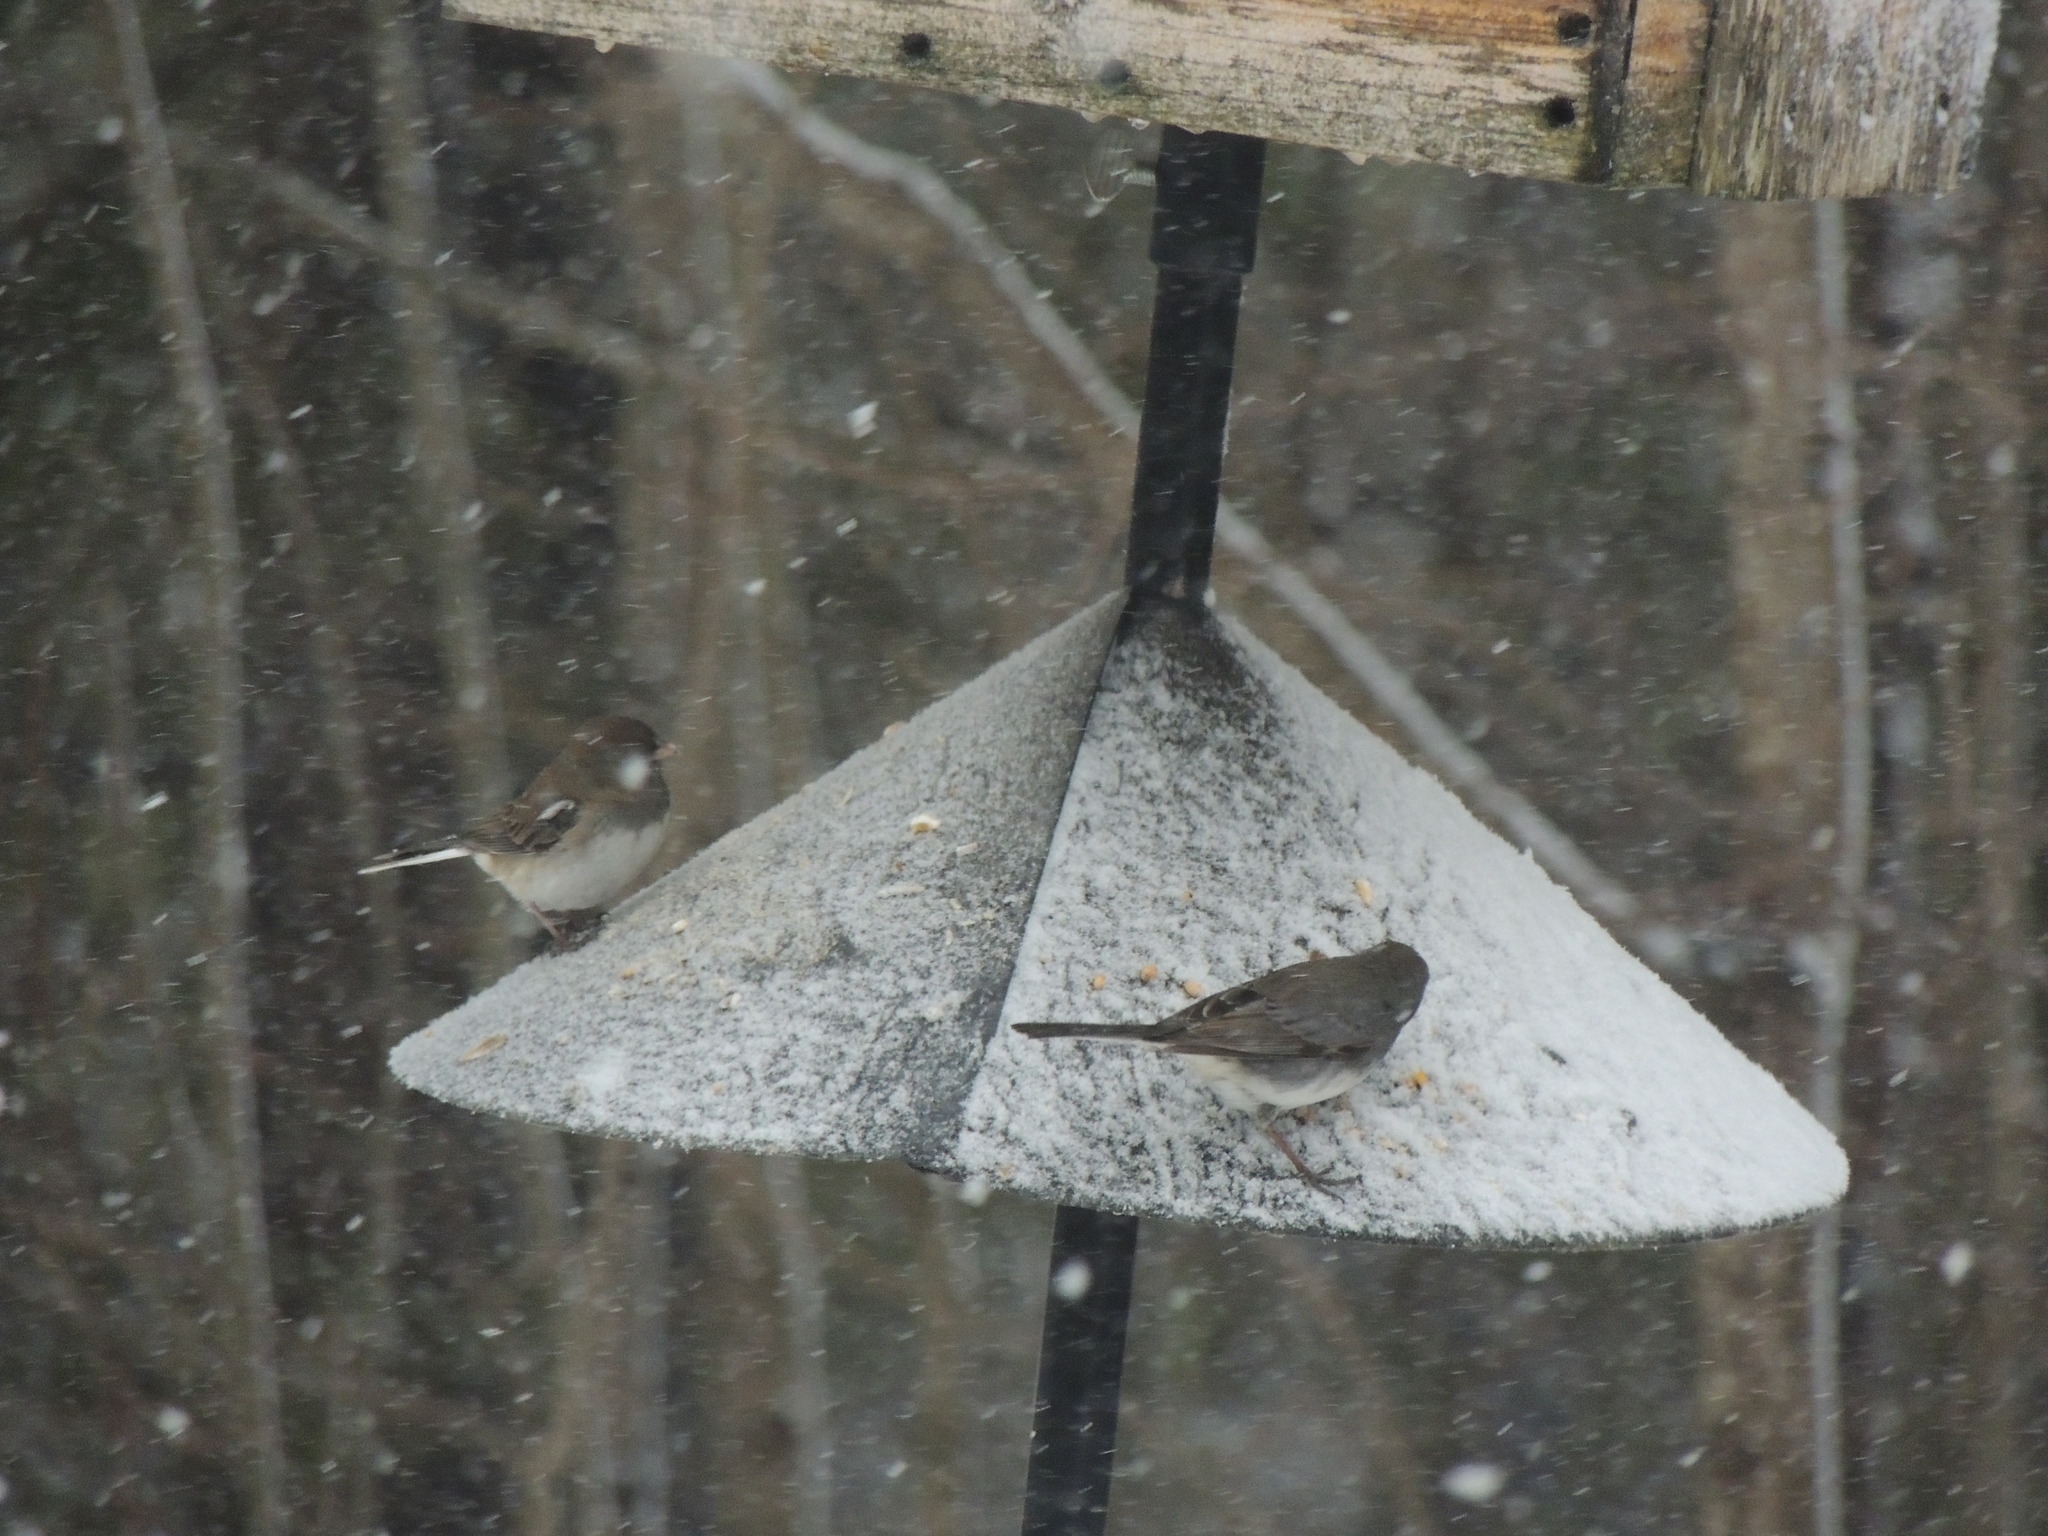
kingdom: Animalia
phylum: Chordata
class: Aves
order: Passeriformes
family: Passerellidae
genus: Junco
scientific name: Junco hyemalis
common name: Dark-eyed junco
